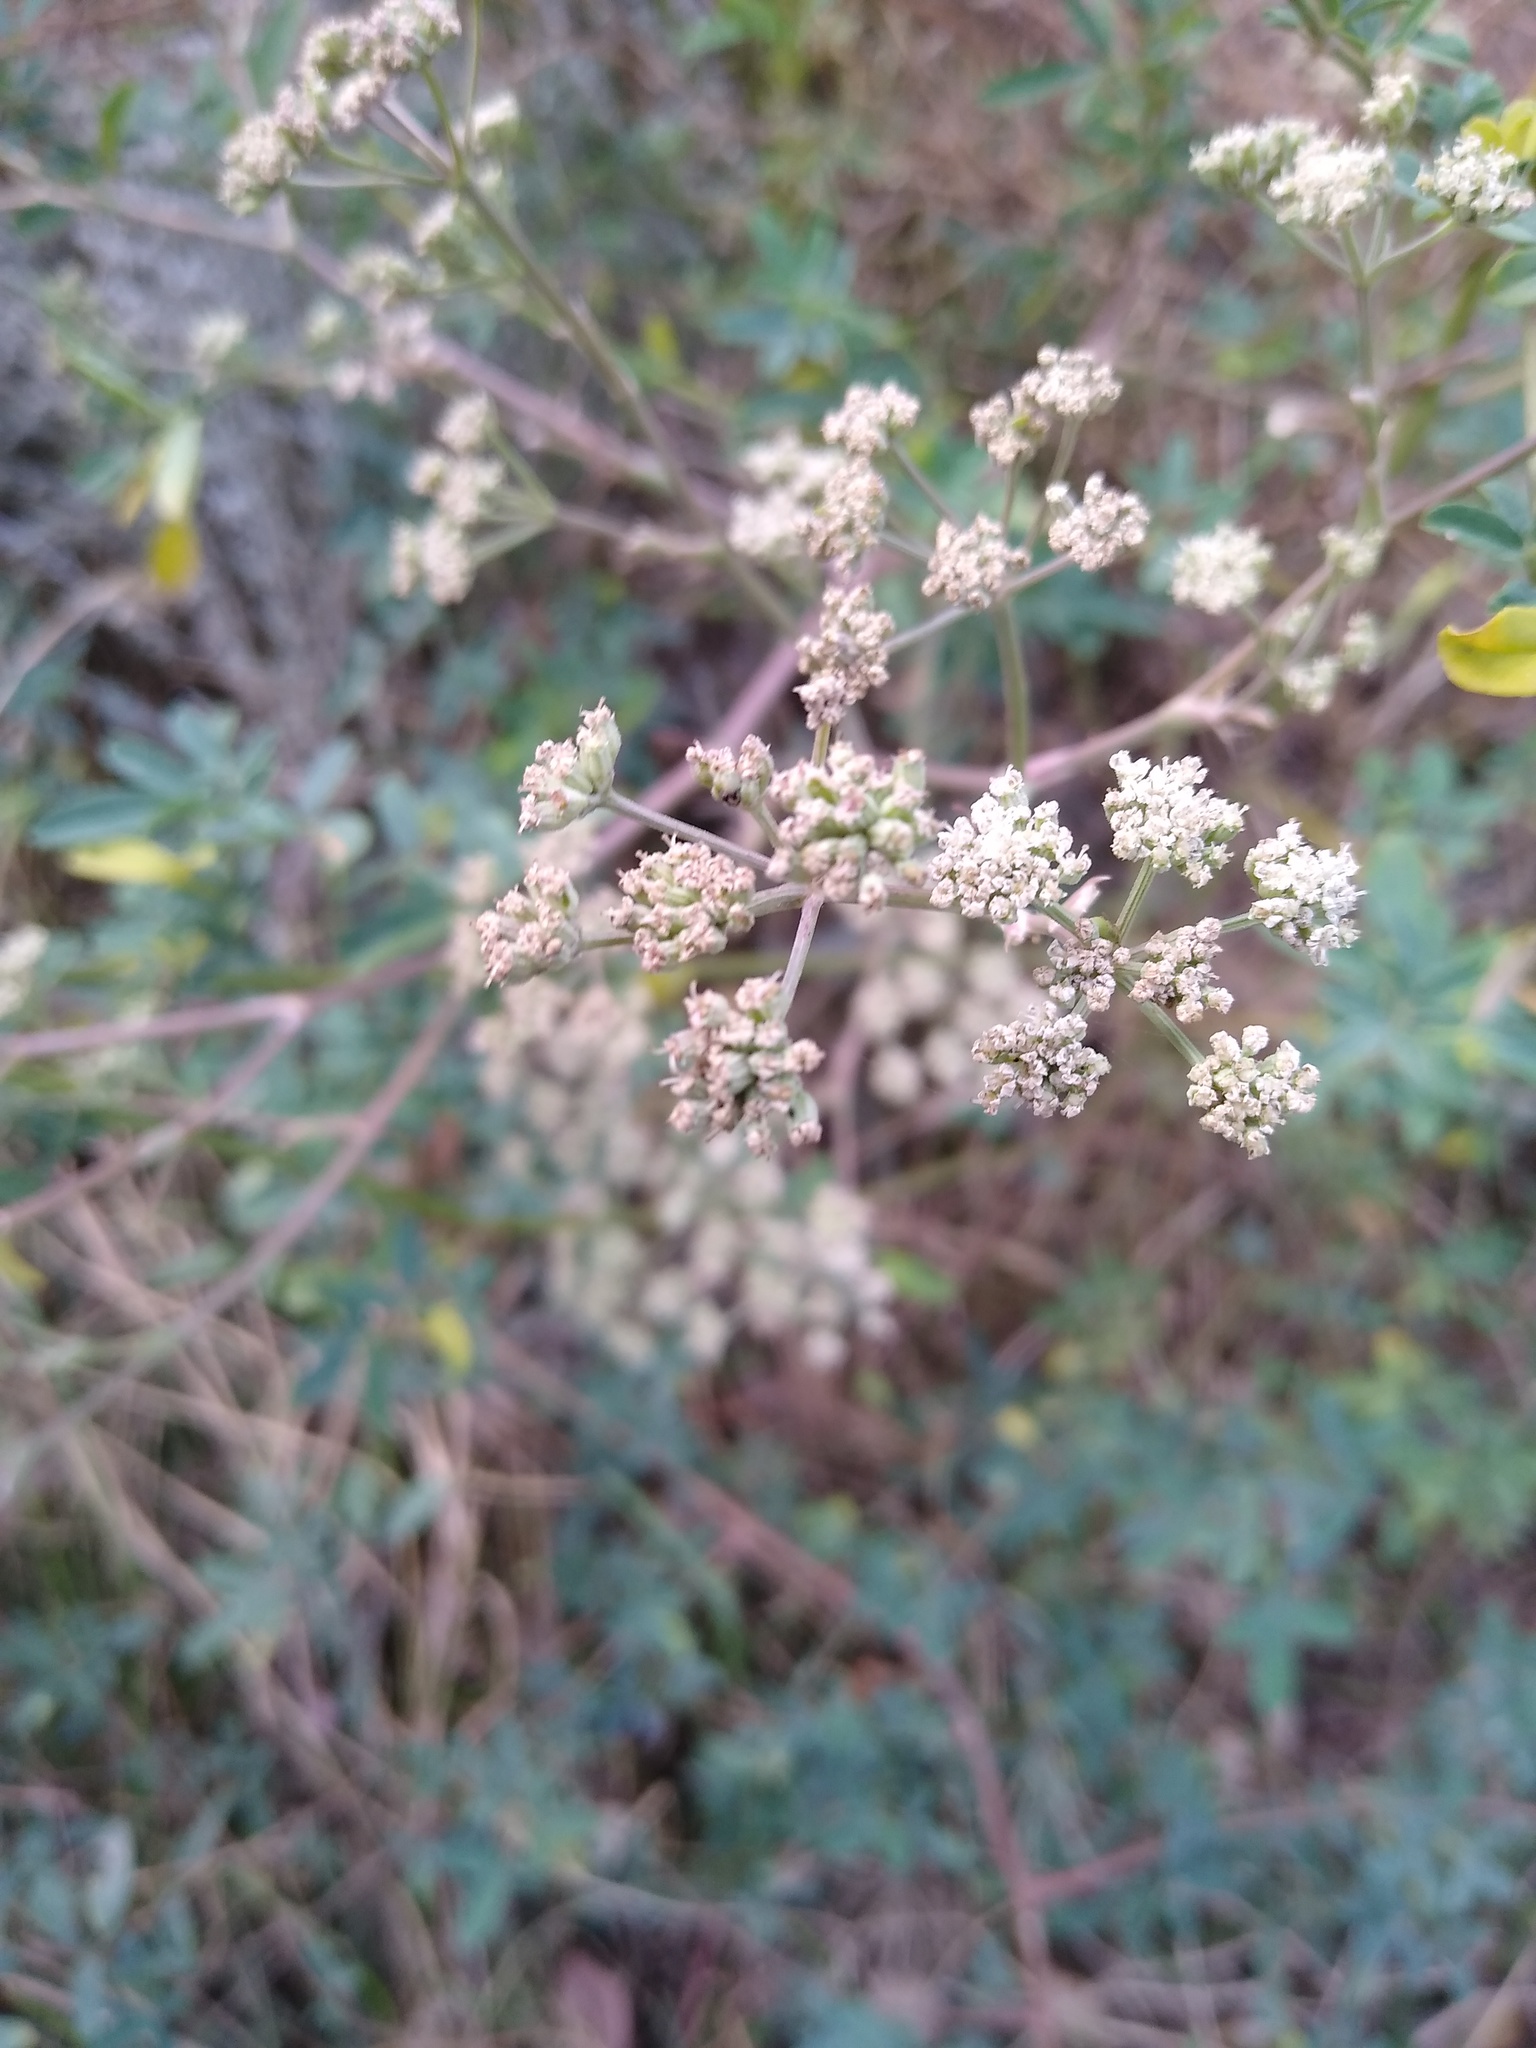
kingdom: Plantae
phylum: Tracheophyta
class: Magnoliopsida
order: Apiales
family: Apiaceae
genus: Seseli
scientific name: Seseli arenarium
